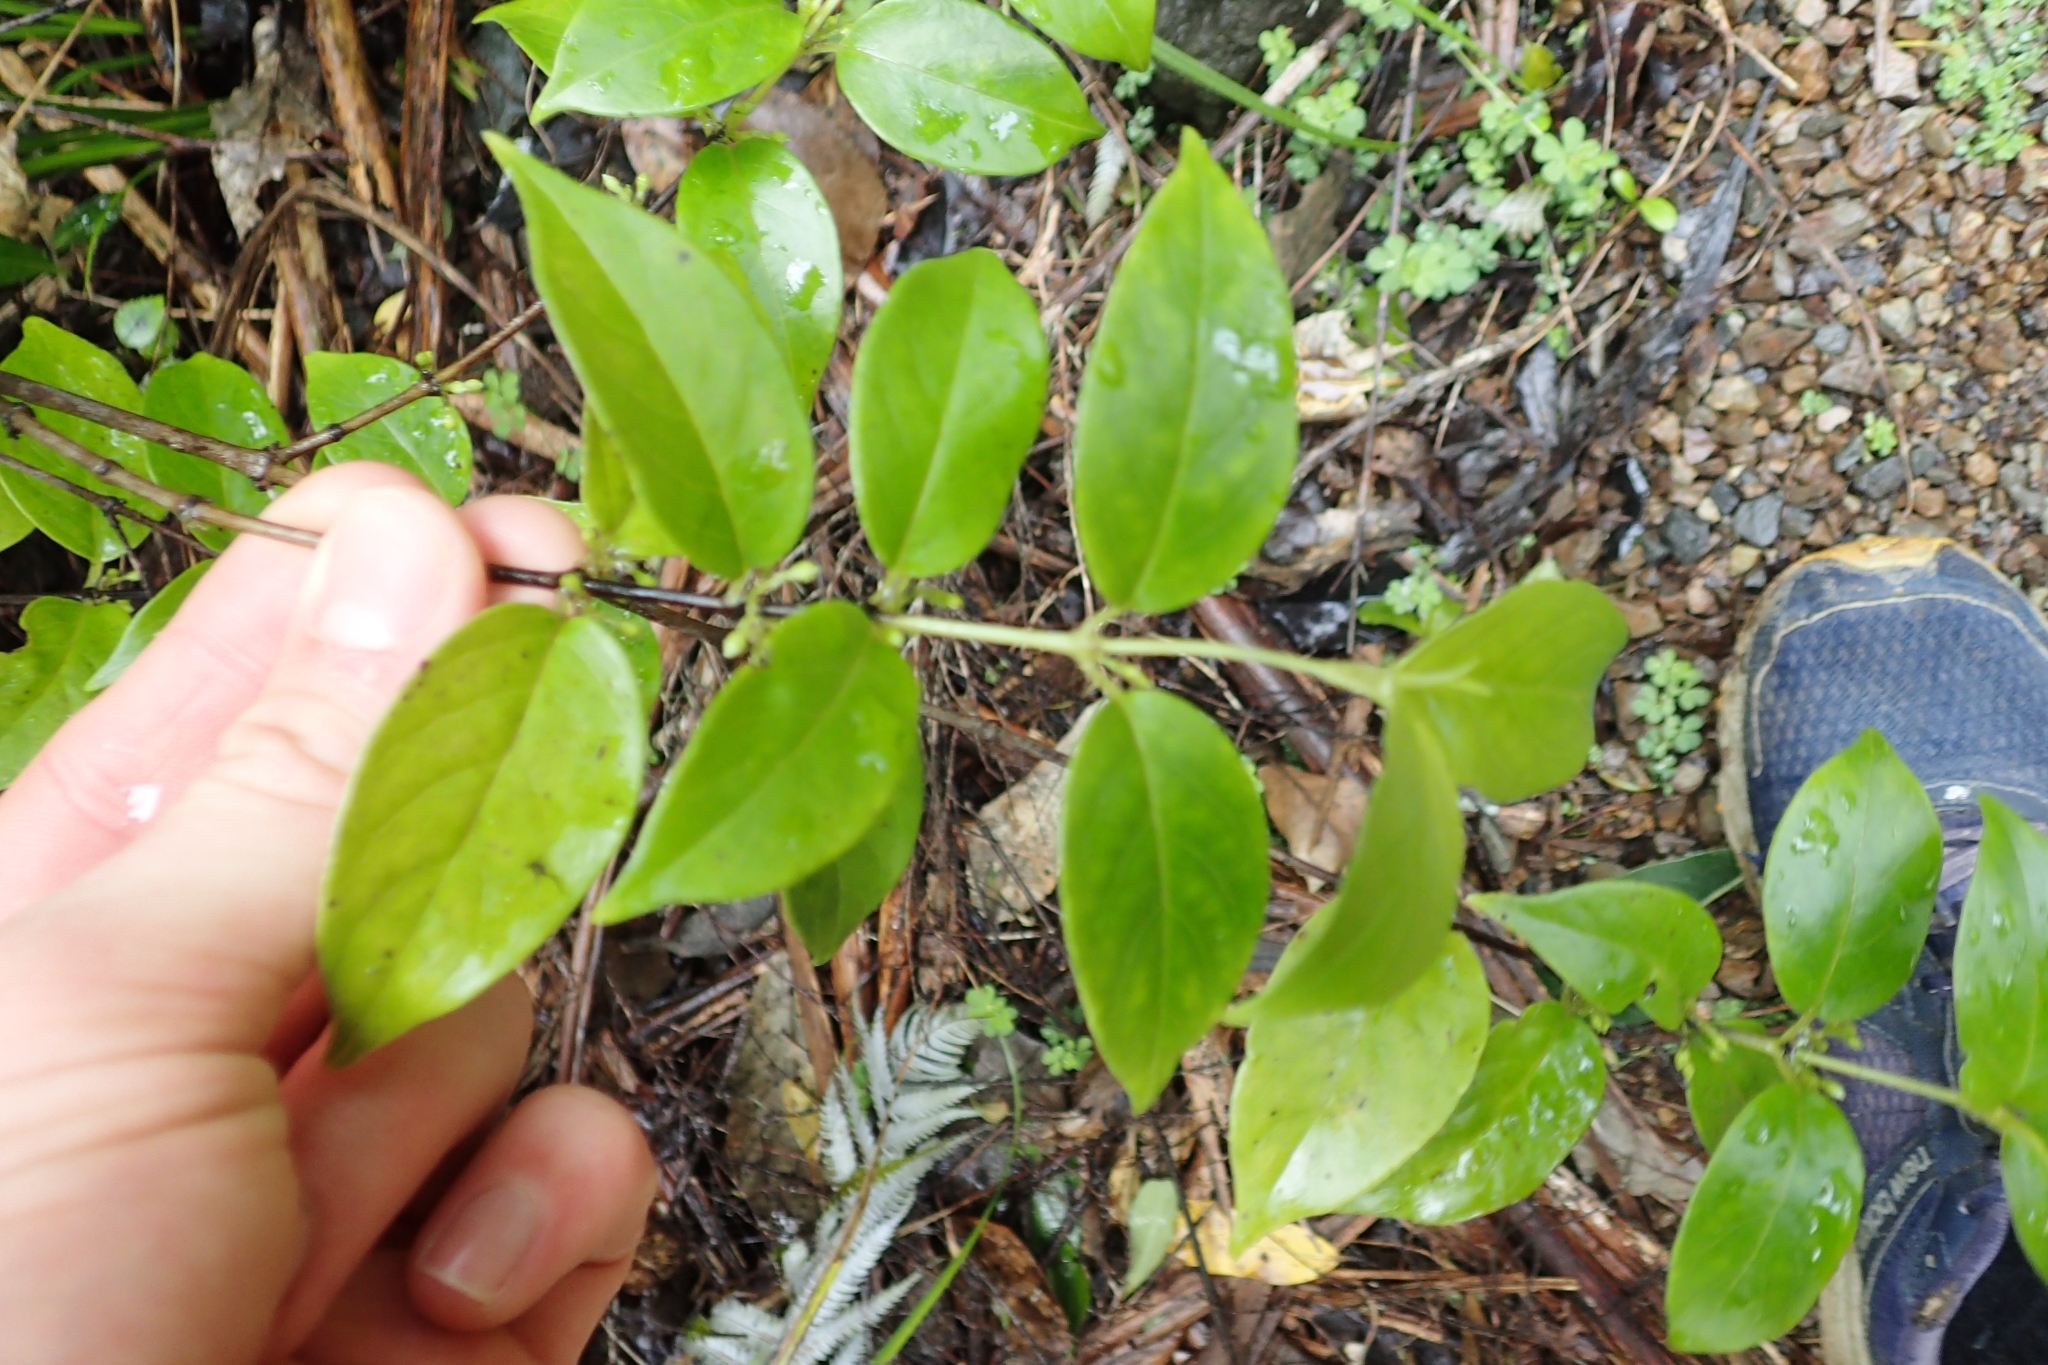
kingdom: Plantae
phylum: Tracheophyta
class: Magnoliopsida
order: Gentianales
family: Loganiaceae
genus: Geniostoma
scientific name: Geniostoma ligustrifolium
